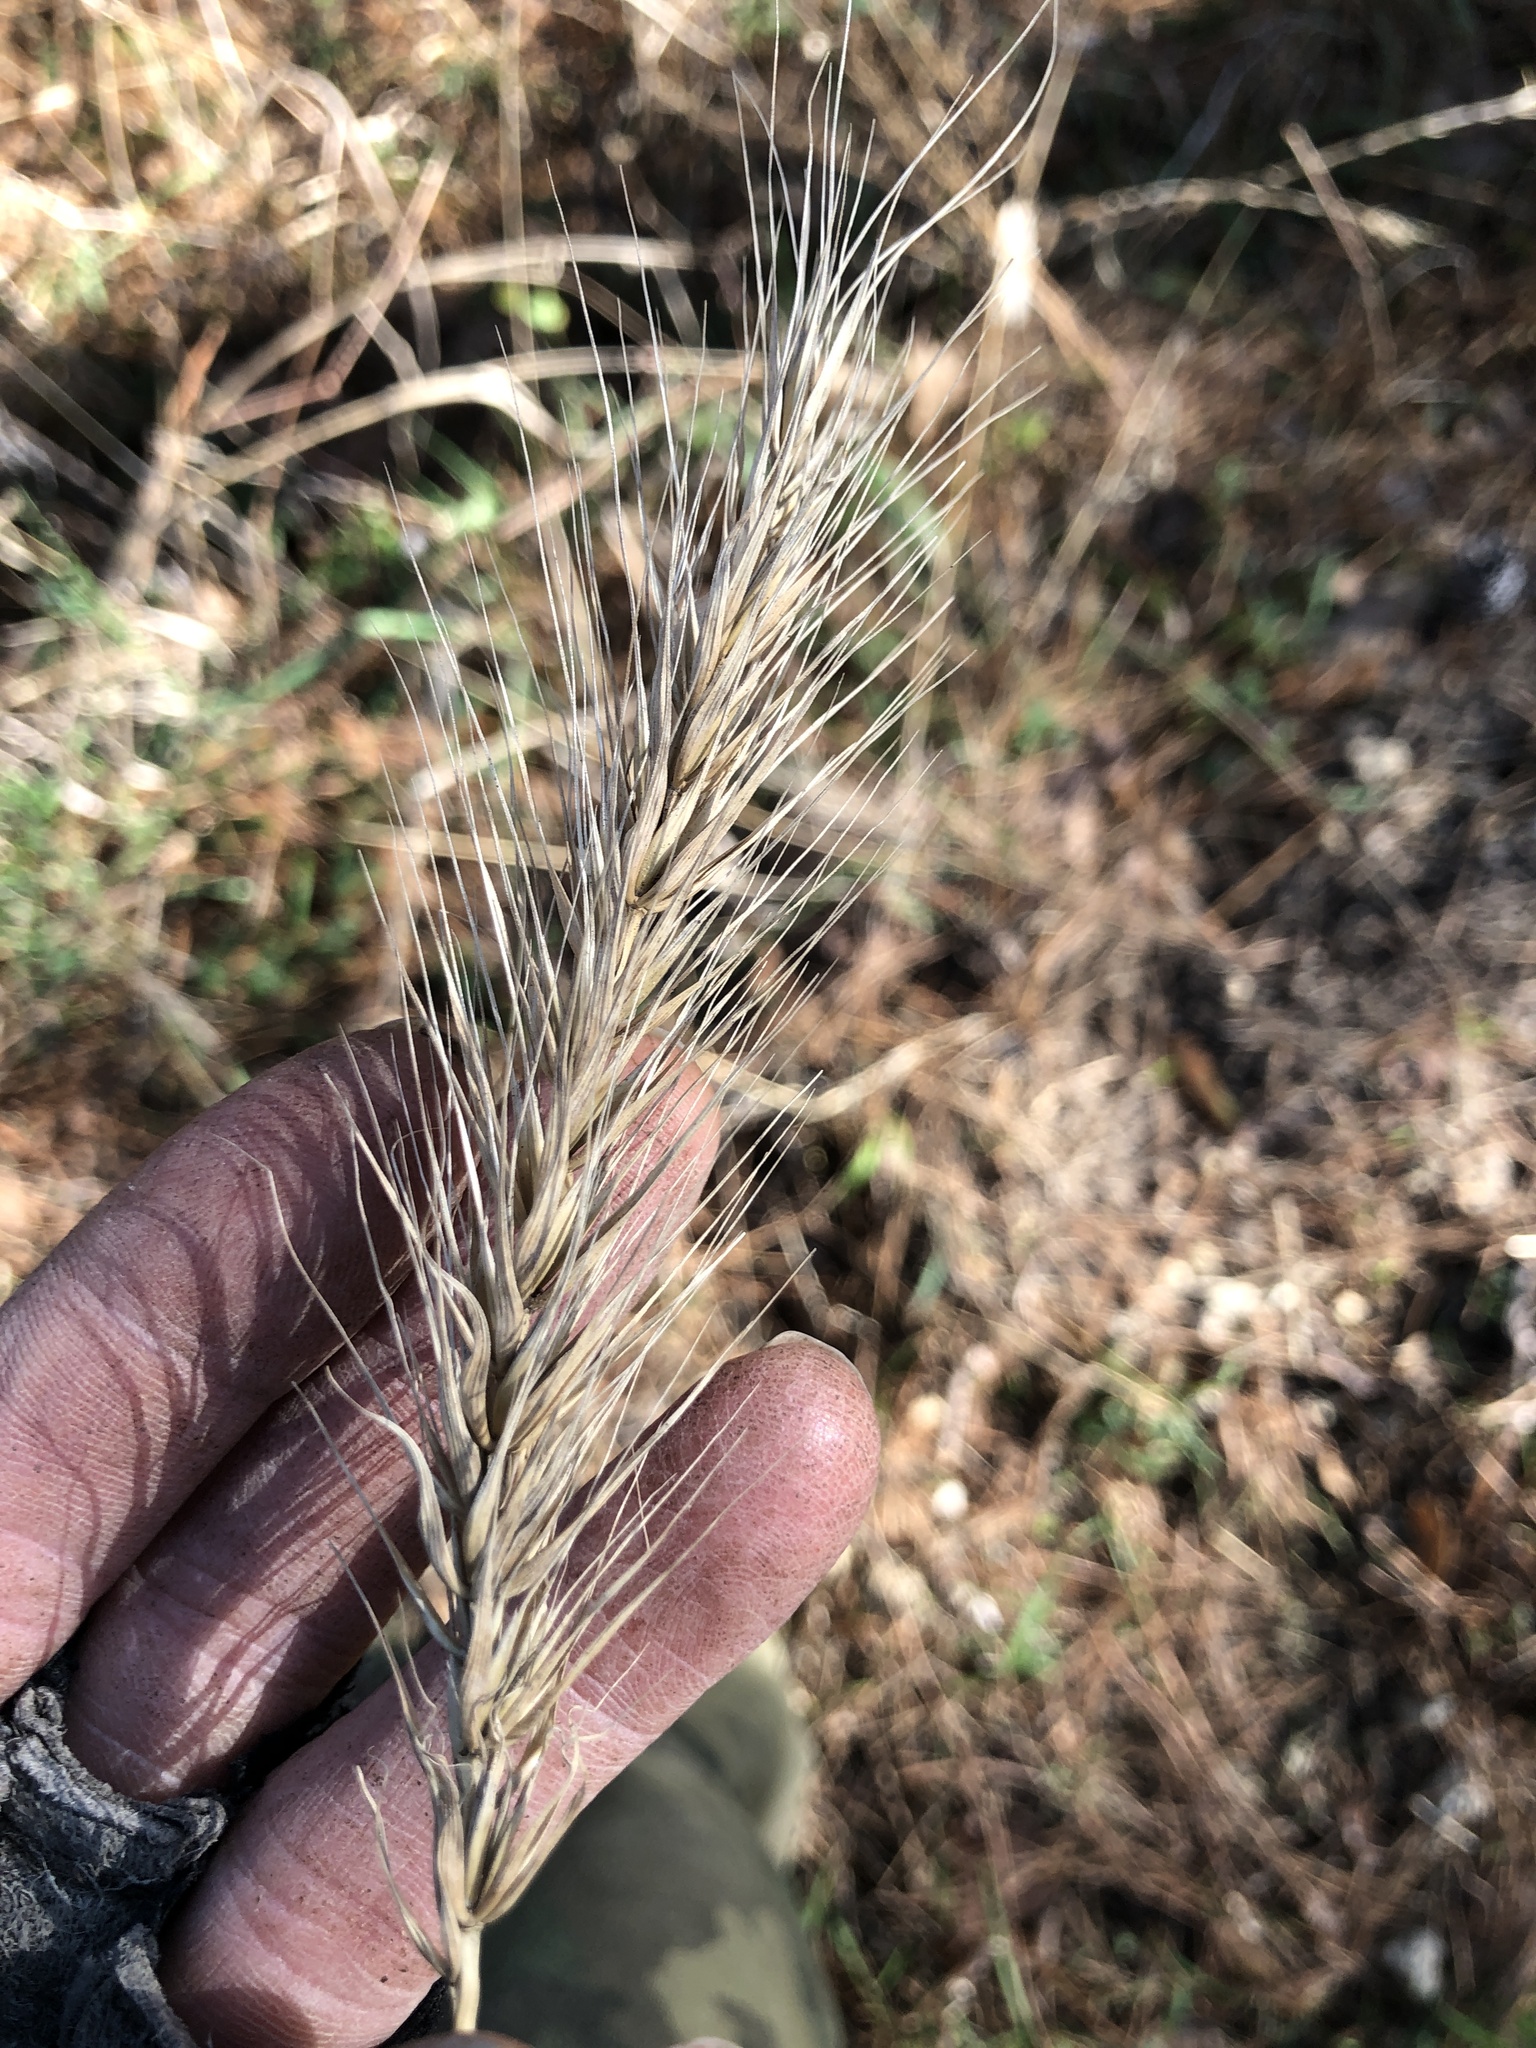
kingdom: Plantae
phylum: Tracheophyta
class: Liliopsida
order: Poales
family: Poaceae
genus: Elymus
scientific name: Elymus virginicus
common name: Common eastern wildrye
